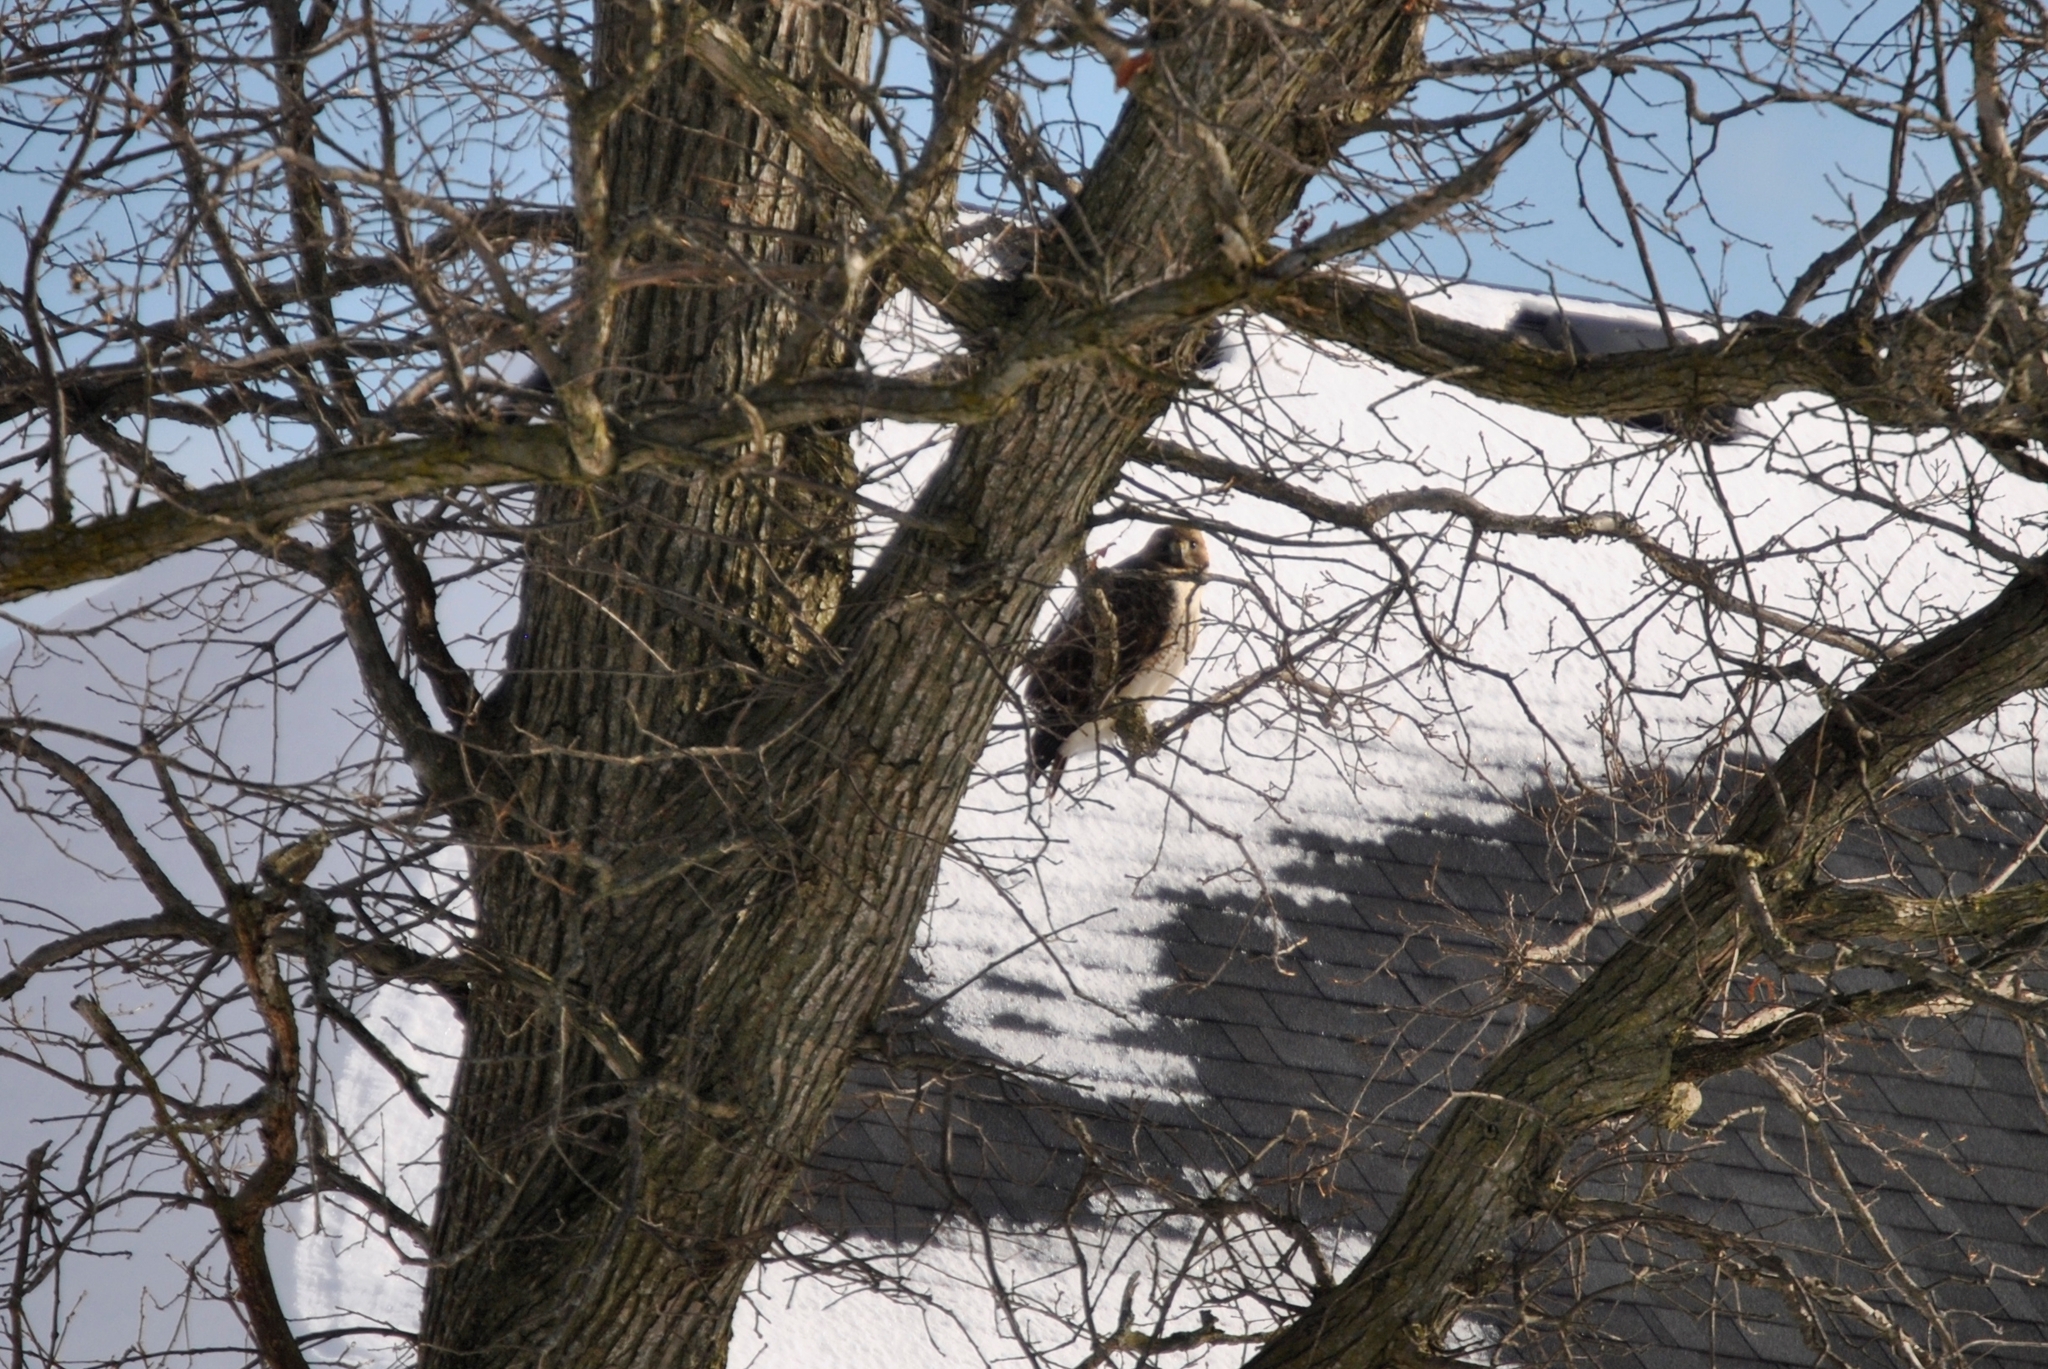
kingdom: Animalia
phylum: Chordata
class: Aves
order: Accipitriformes
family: Accipitridae
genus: Buteo
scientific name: Buteo jamaicensis
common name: Red-tailed hawk
